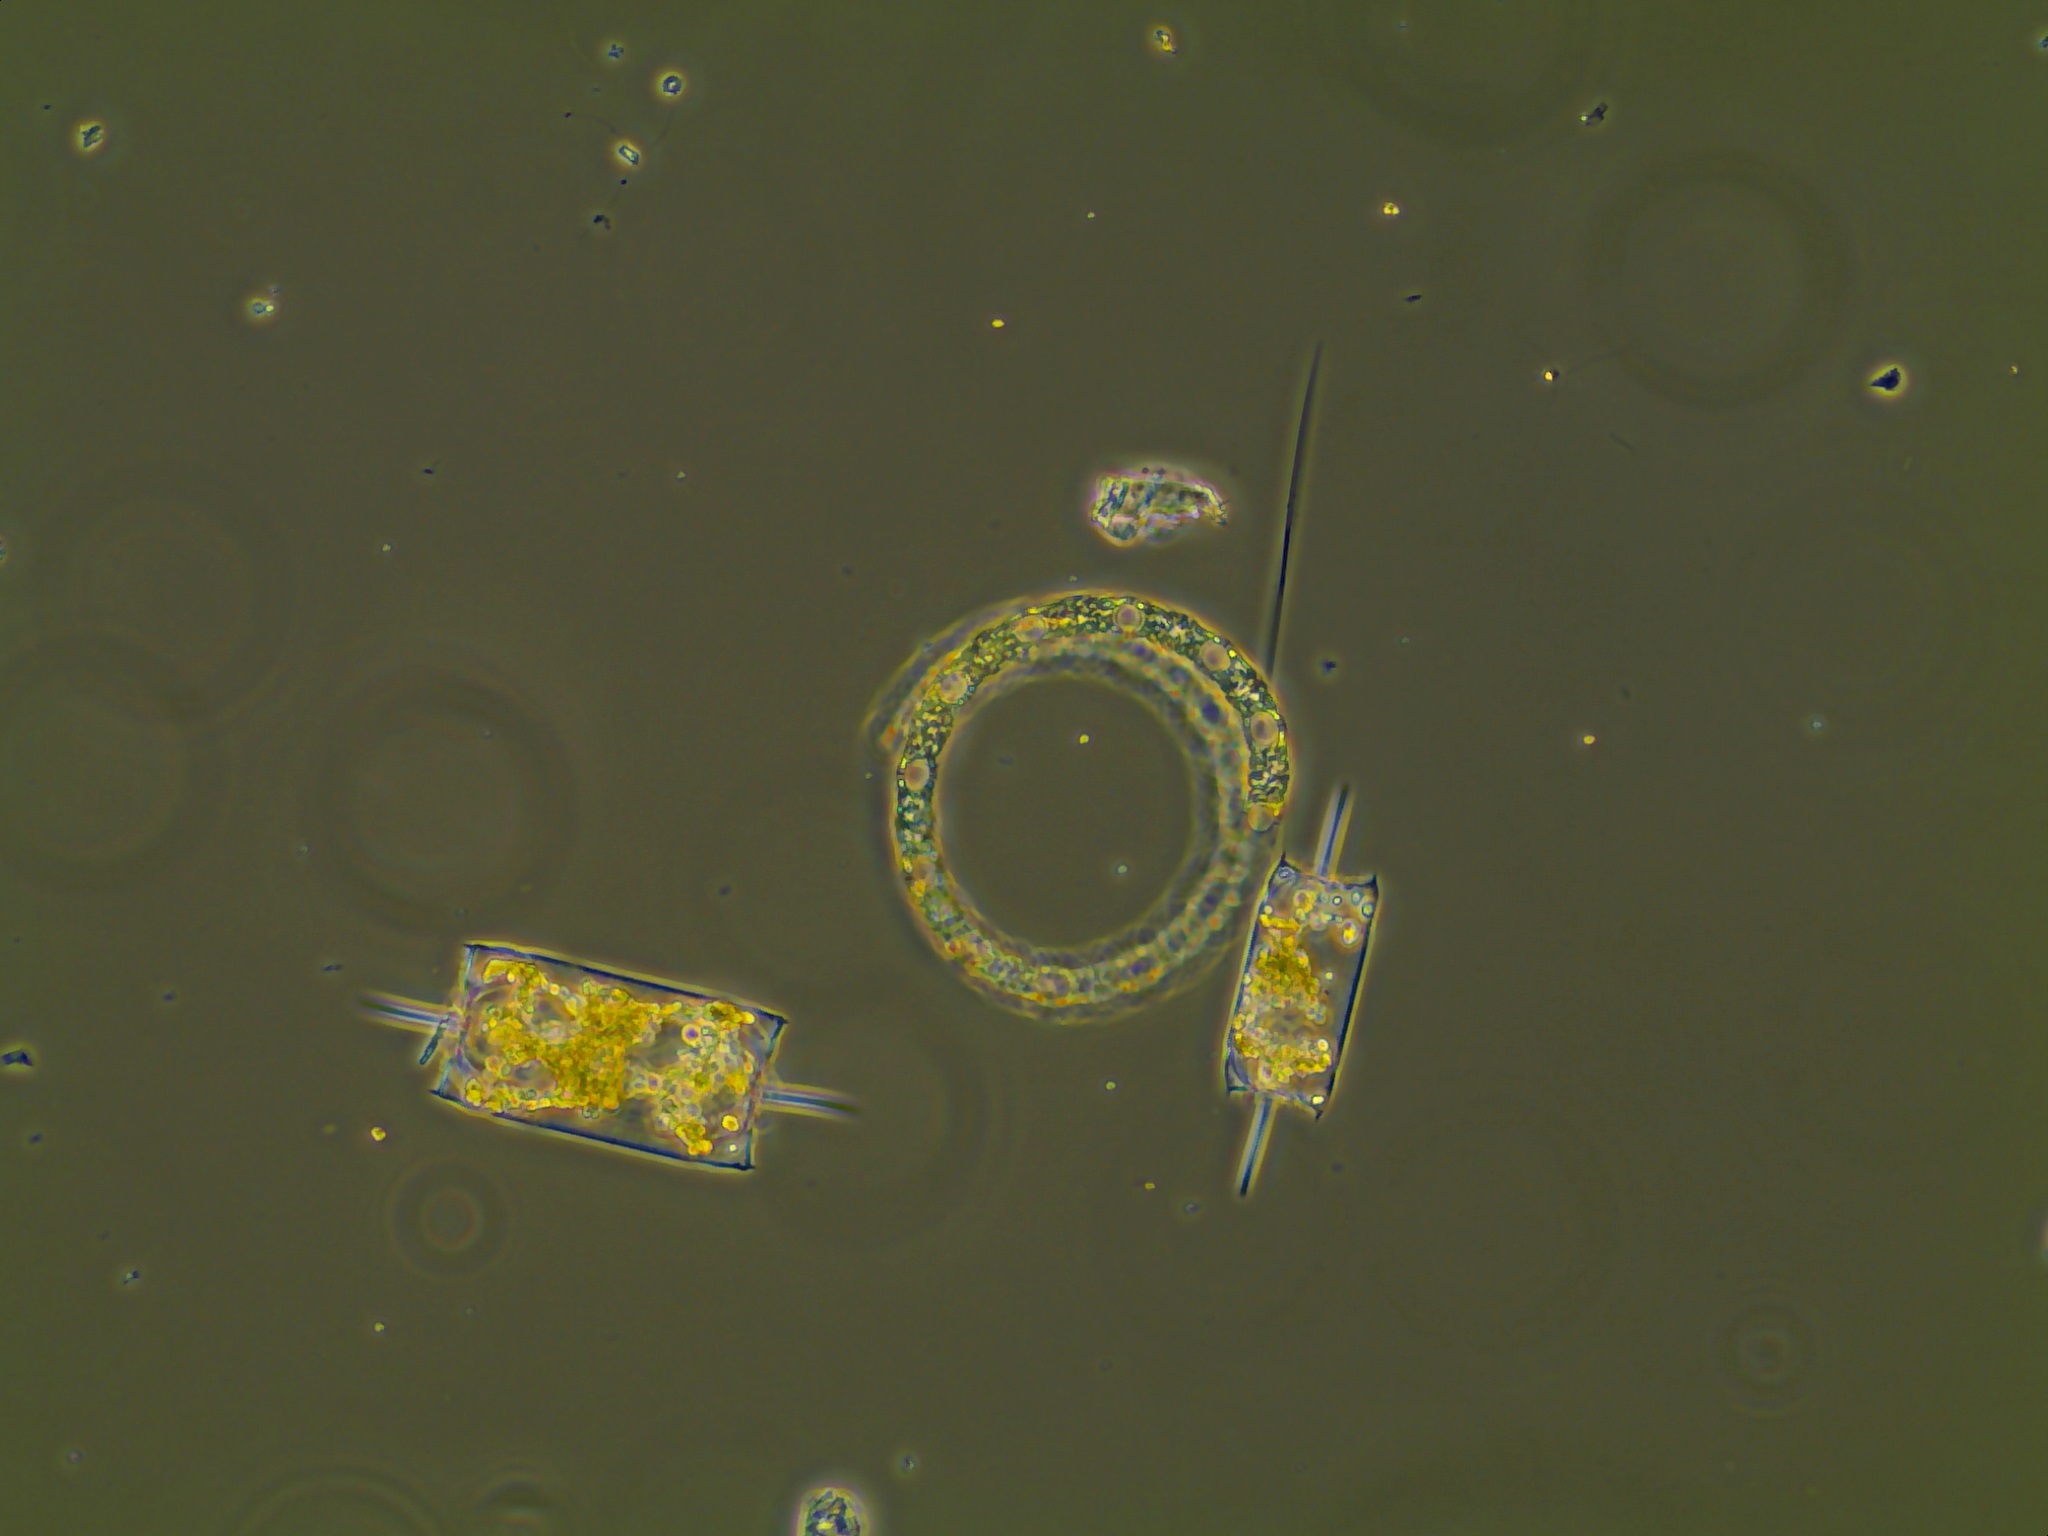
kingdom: Chromista
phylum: Ochrophyta
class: Bacillariophyceae
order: Hemiaulales
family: Hemiaulaceae
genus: Eucampia
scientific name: Eucampia zodiacus
